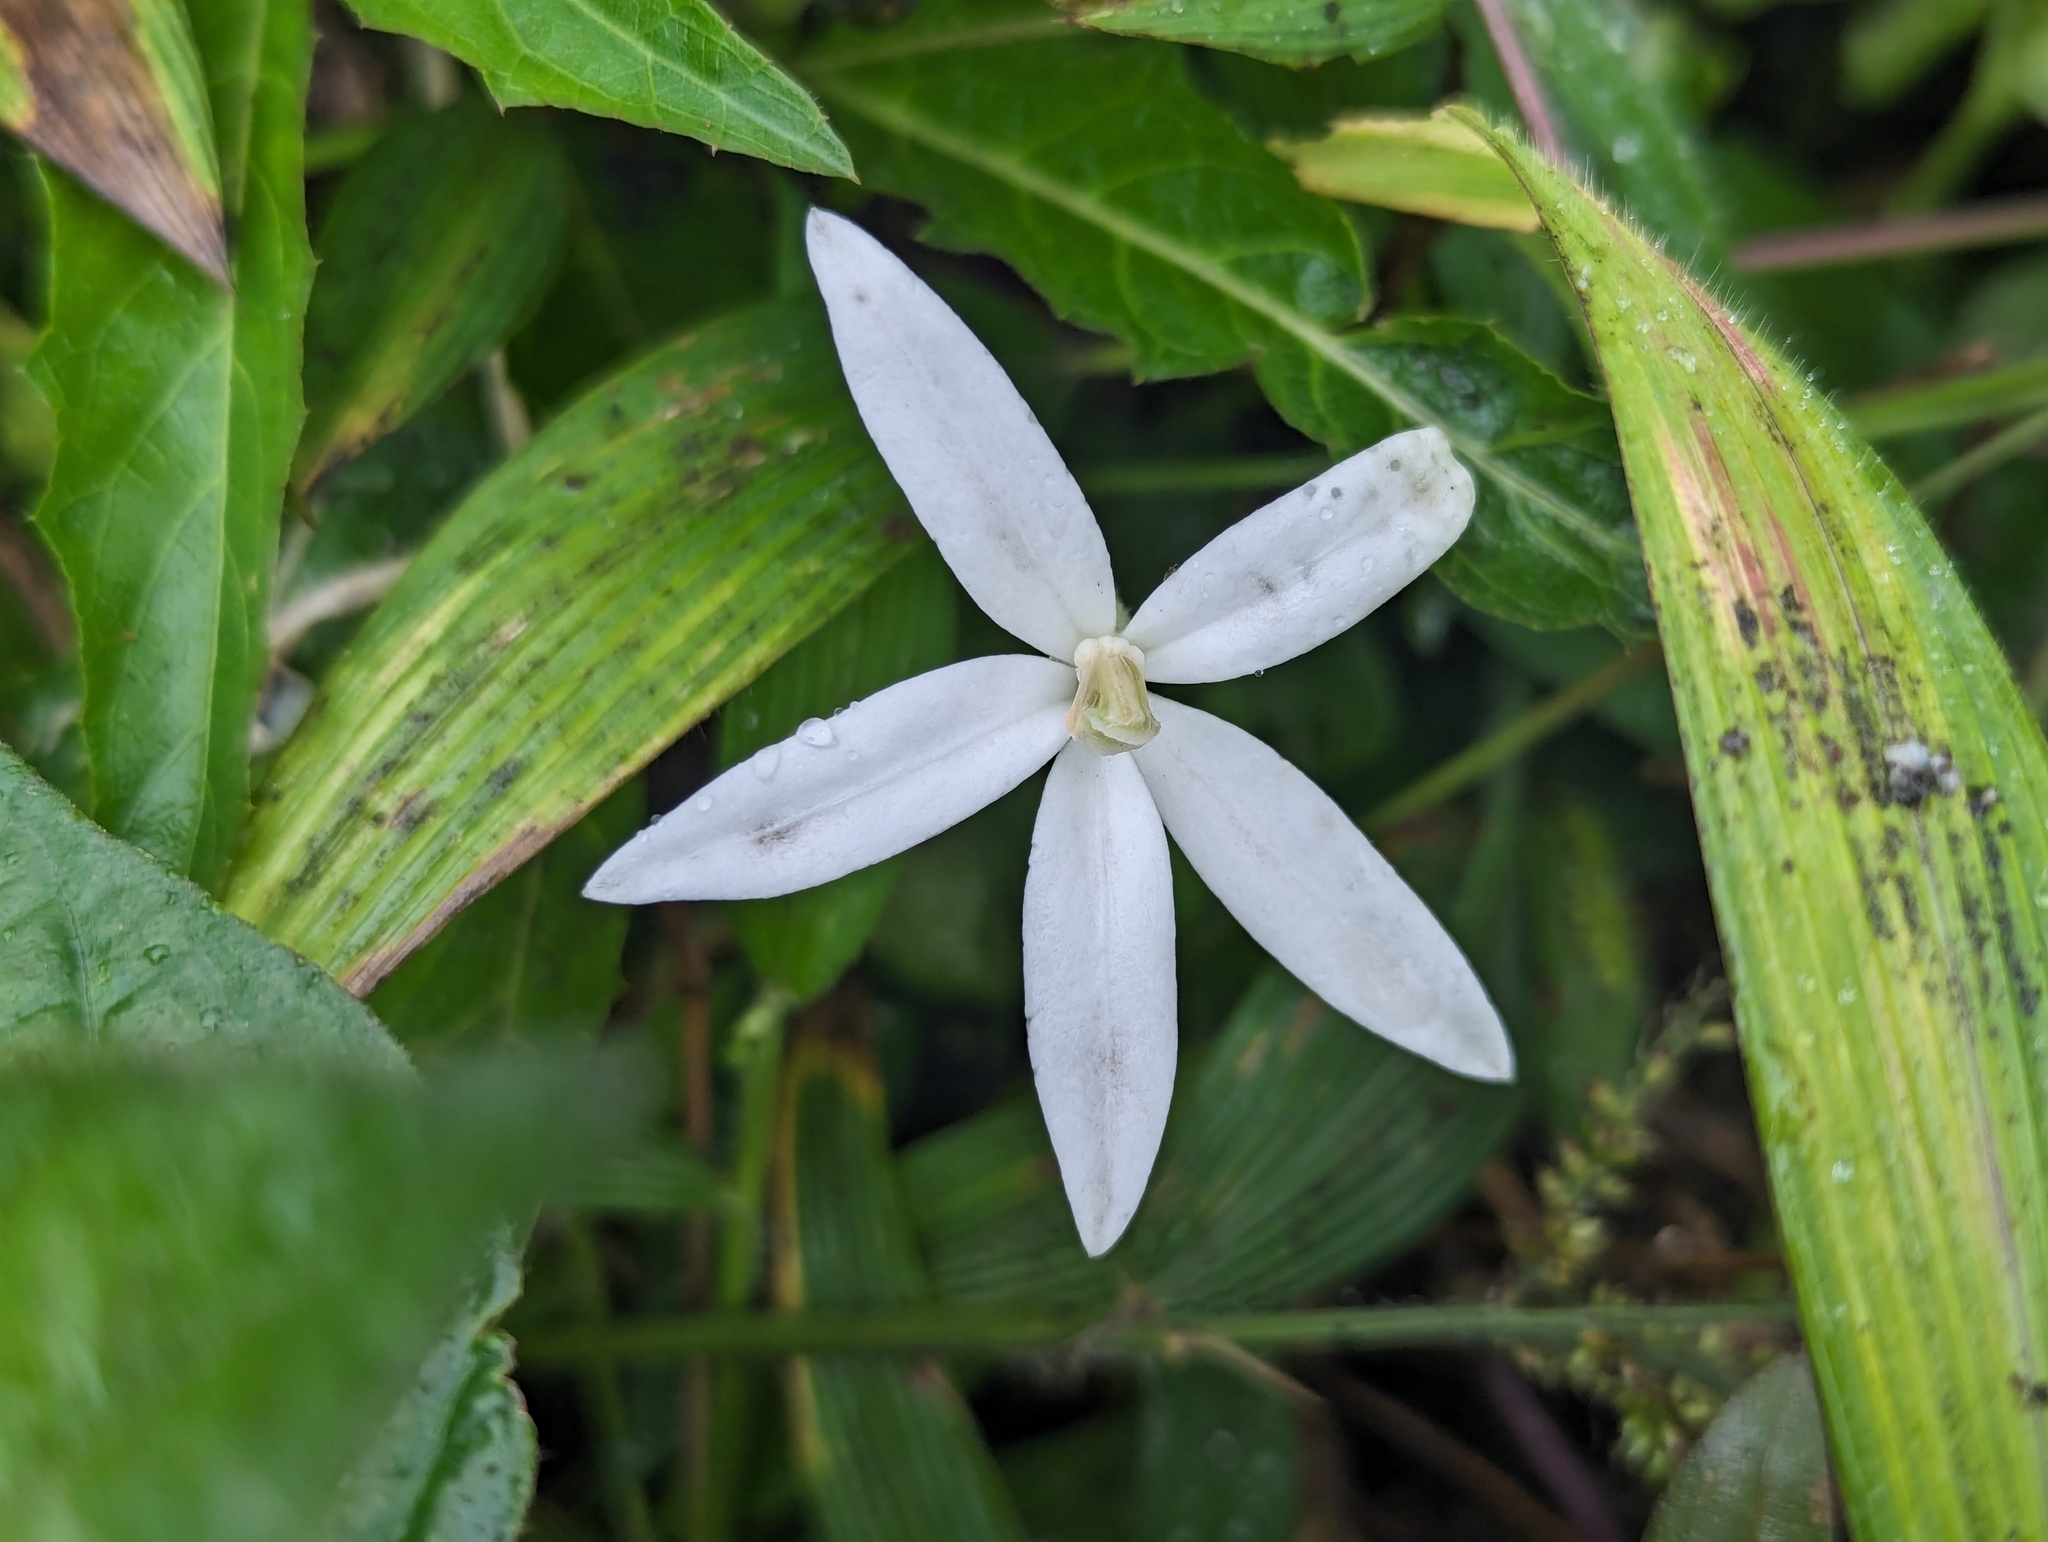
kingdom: Plantae
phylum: Tracheophyta
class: Magnoliopsida
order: Asterales
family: Campanulaceae
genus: Hippobroma
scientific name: Hippobroma longiflora
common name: Madamfate
